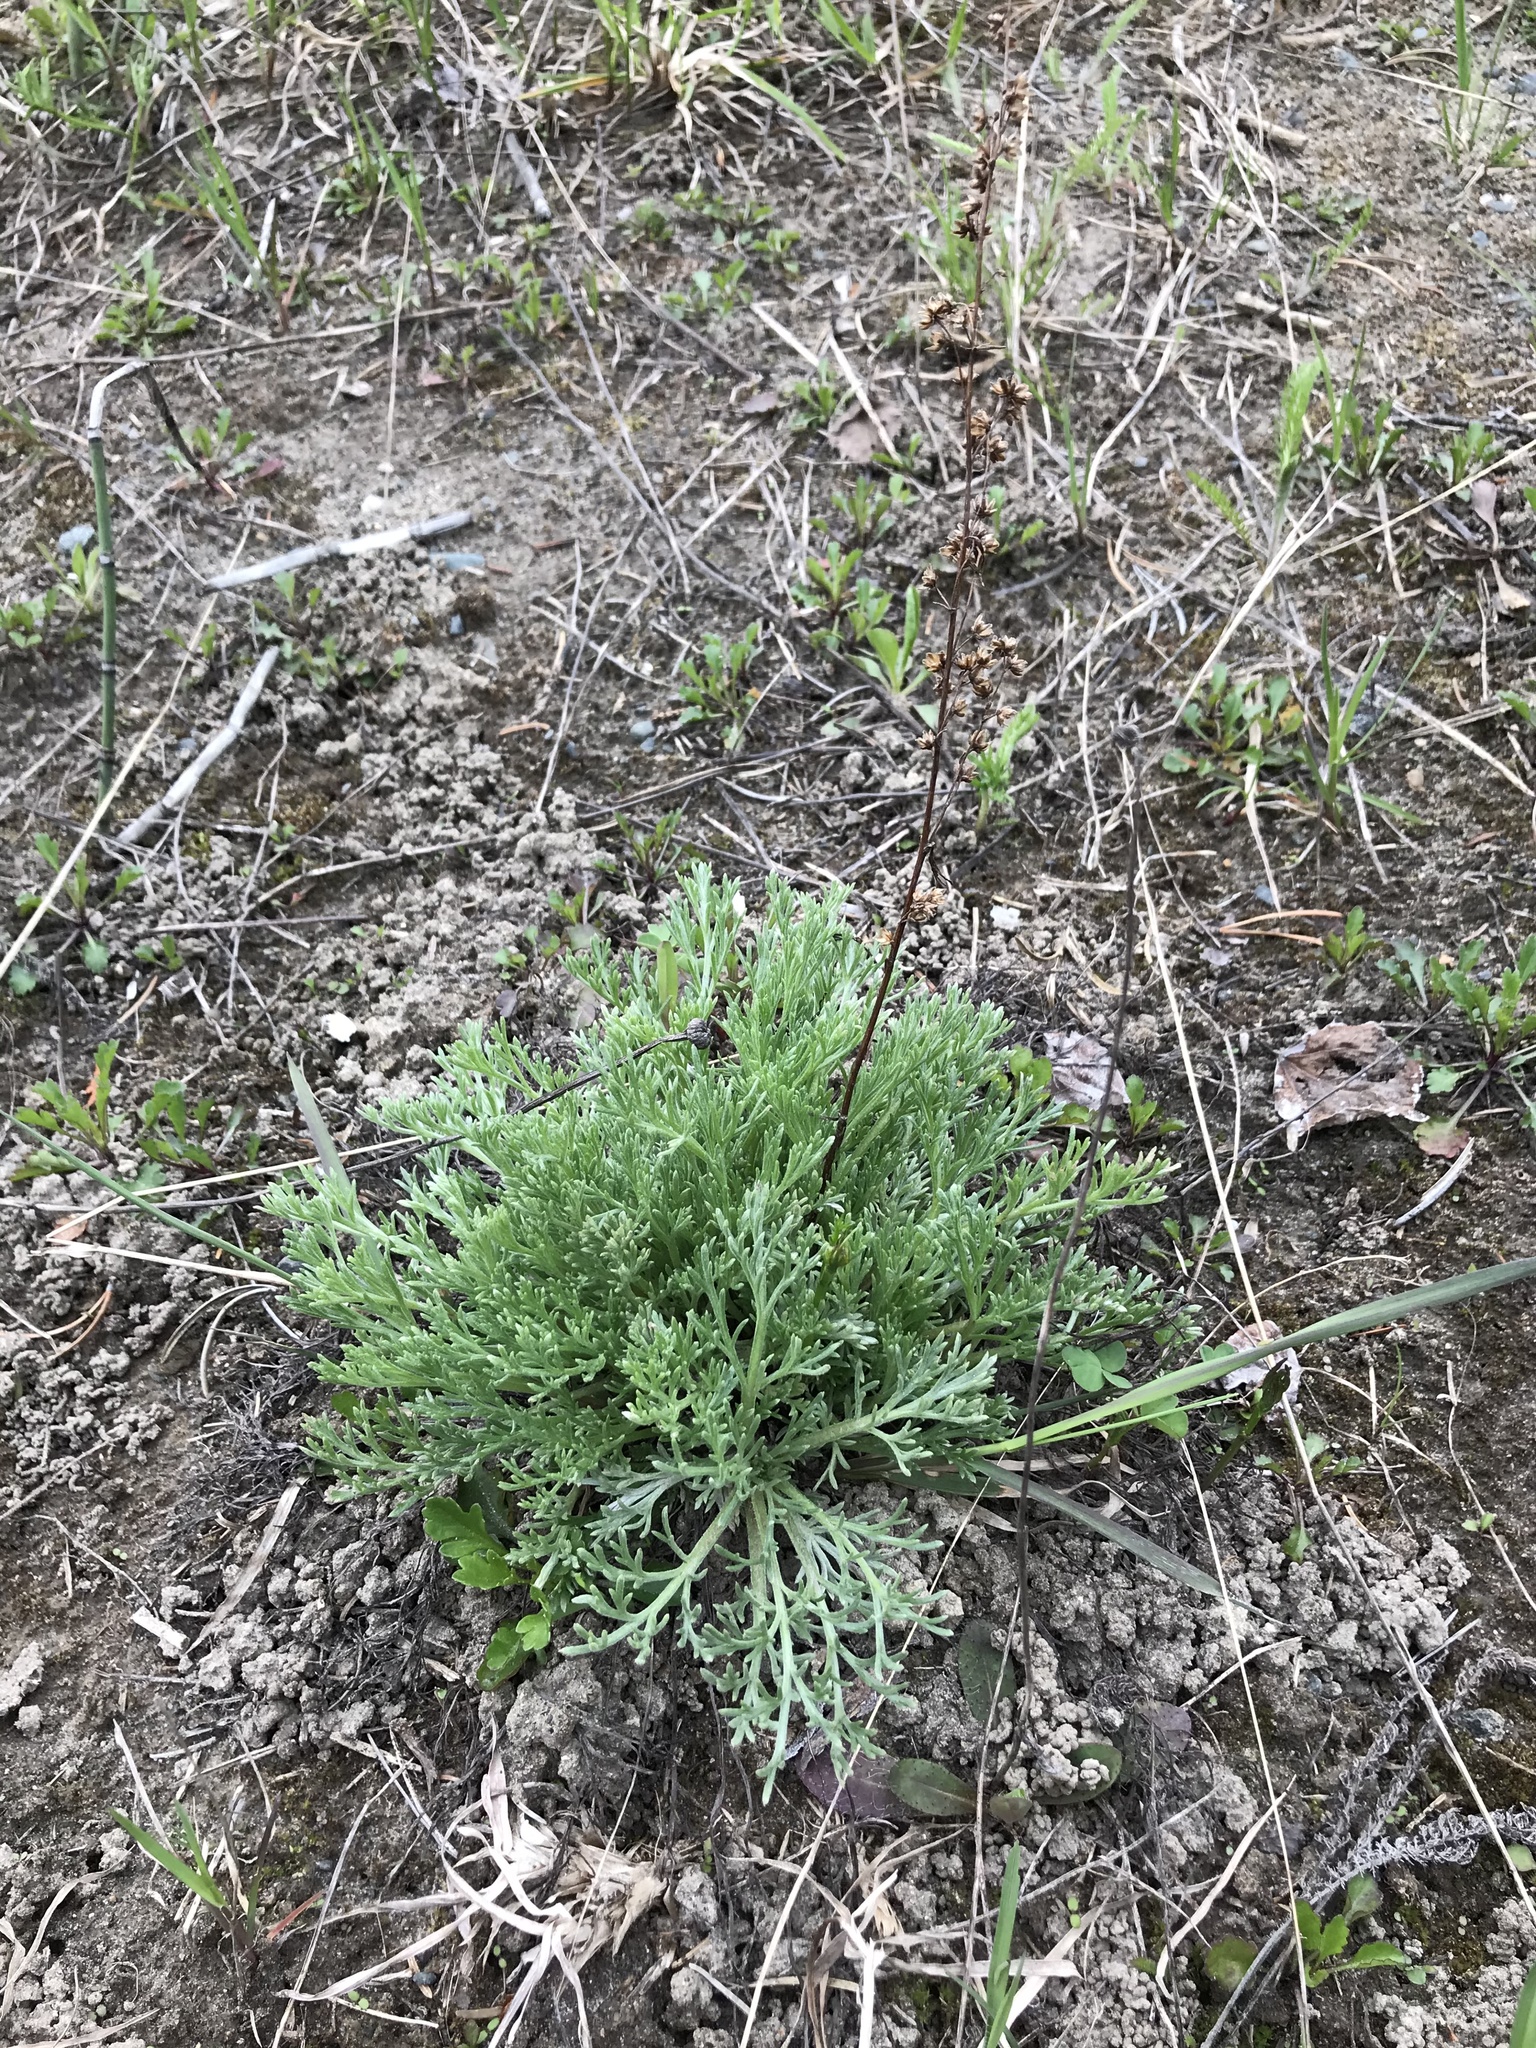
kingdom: Plantae
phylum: Tracheophyta
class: Magnoliopsida
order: Asterales
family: Asteraceae
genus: Artemisia
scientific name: Artemisia campestris
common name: Field wormwood
